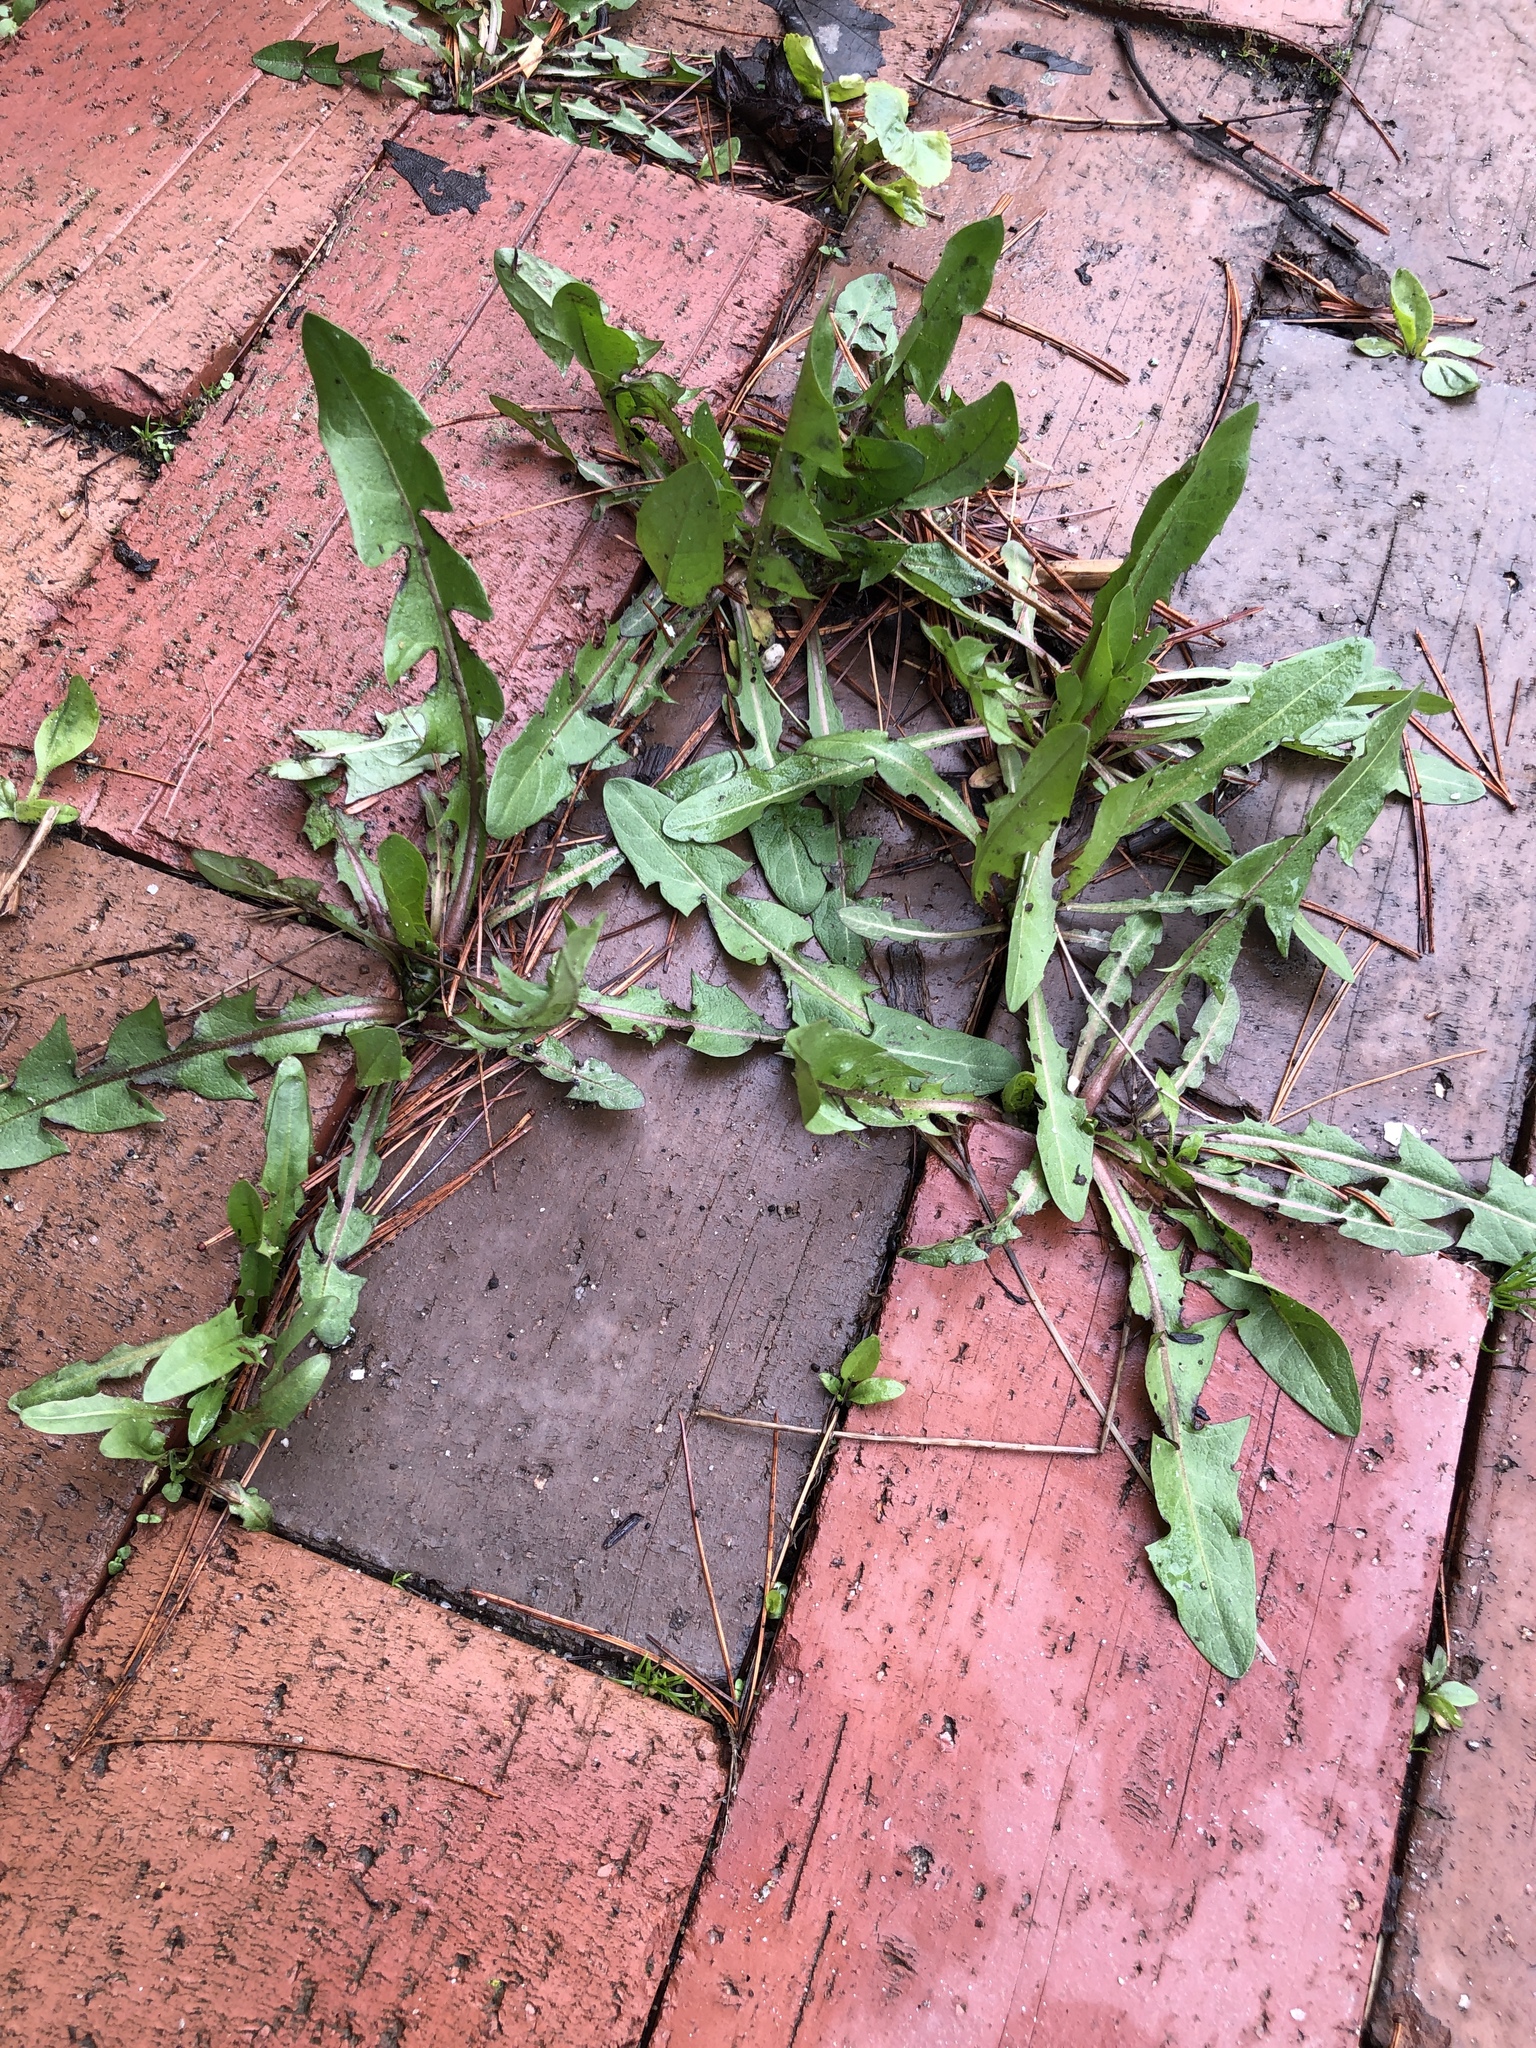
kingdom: Plantae
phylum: Tracheophyta
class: Magnoliopsida
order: Asterales
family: Asteraceae
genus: Taraxacum
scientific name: Taraxacum
